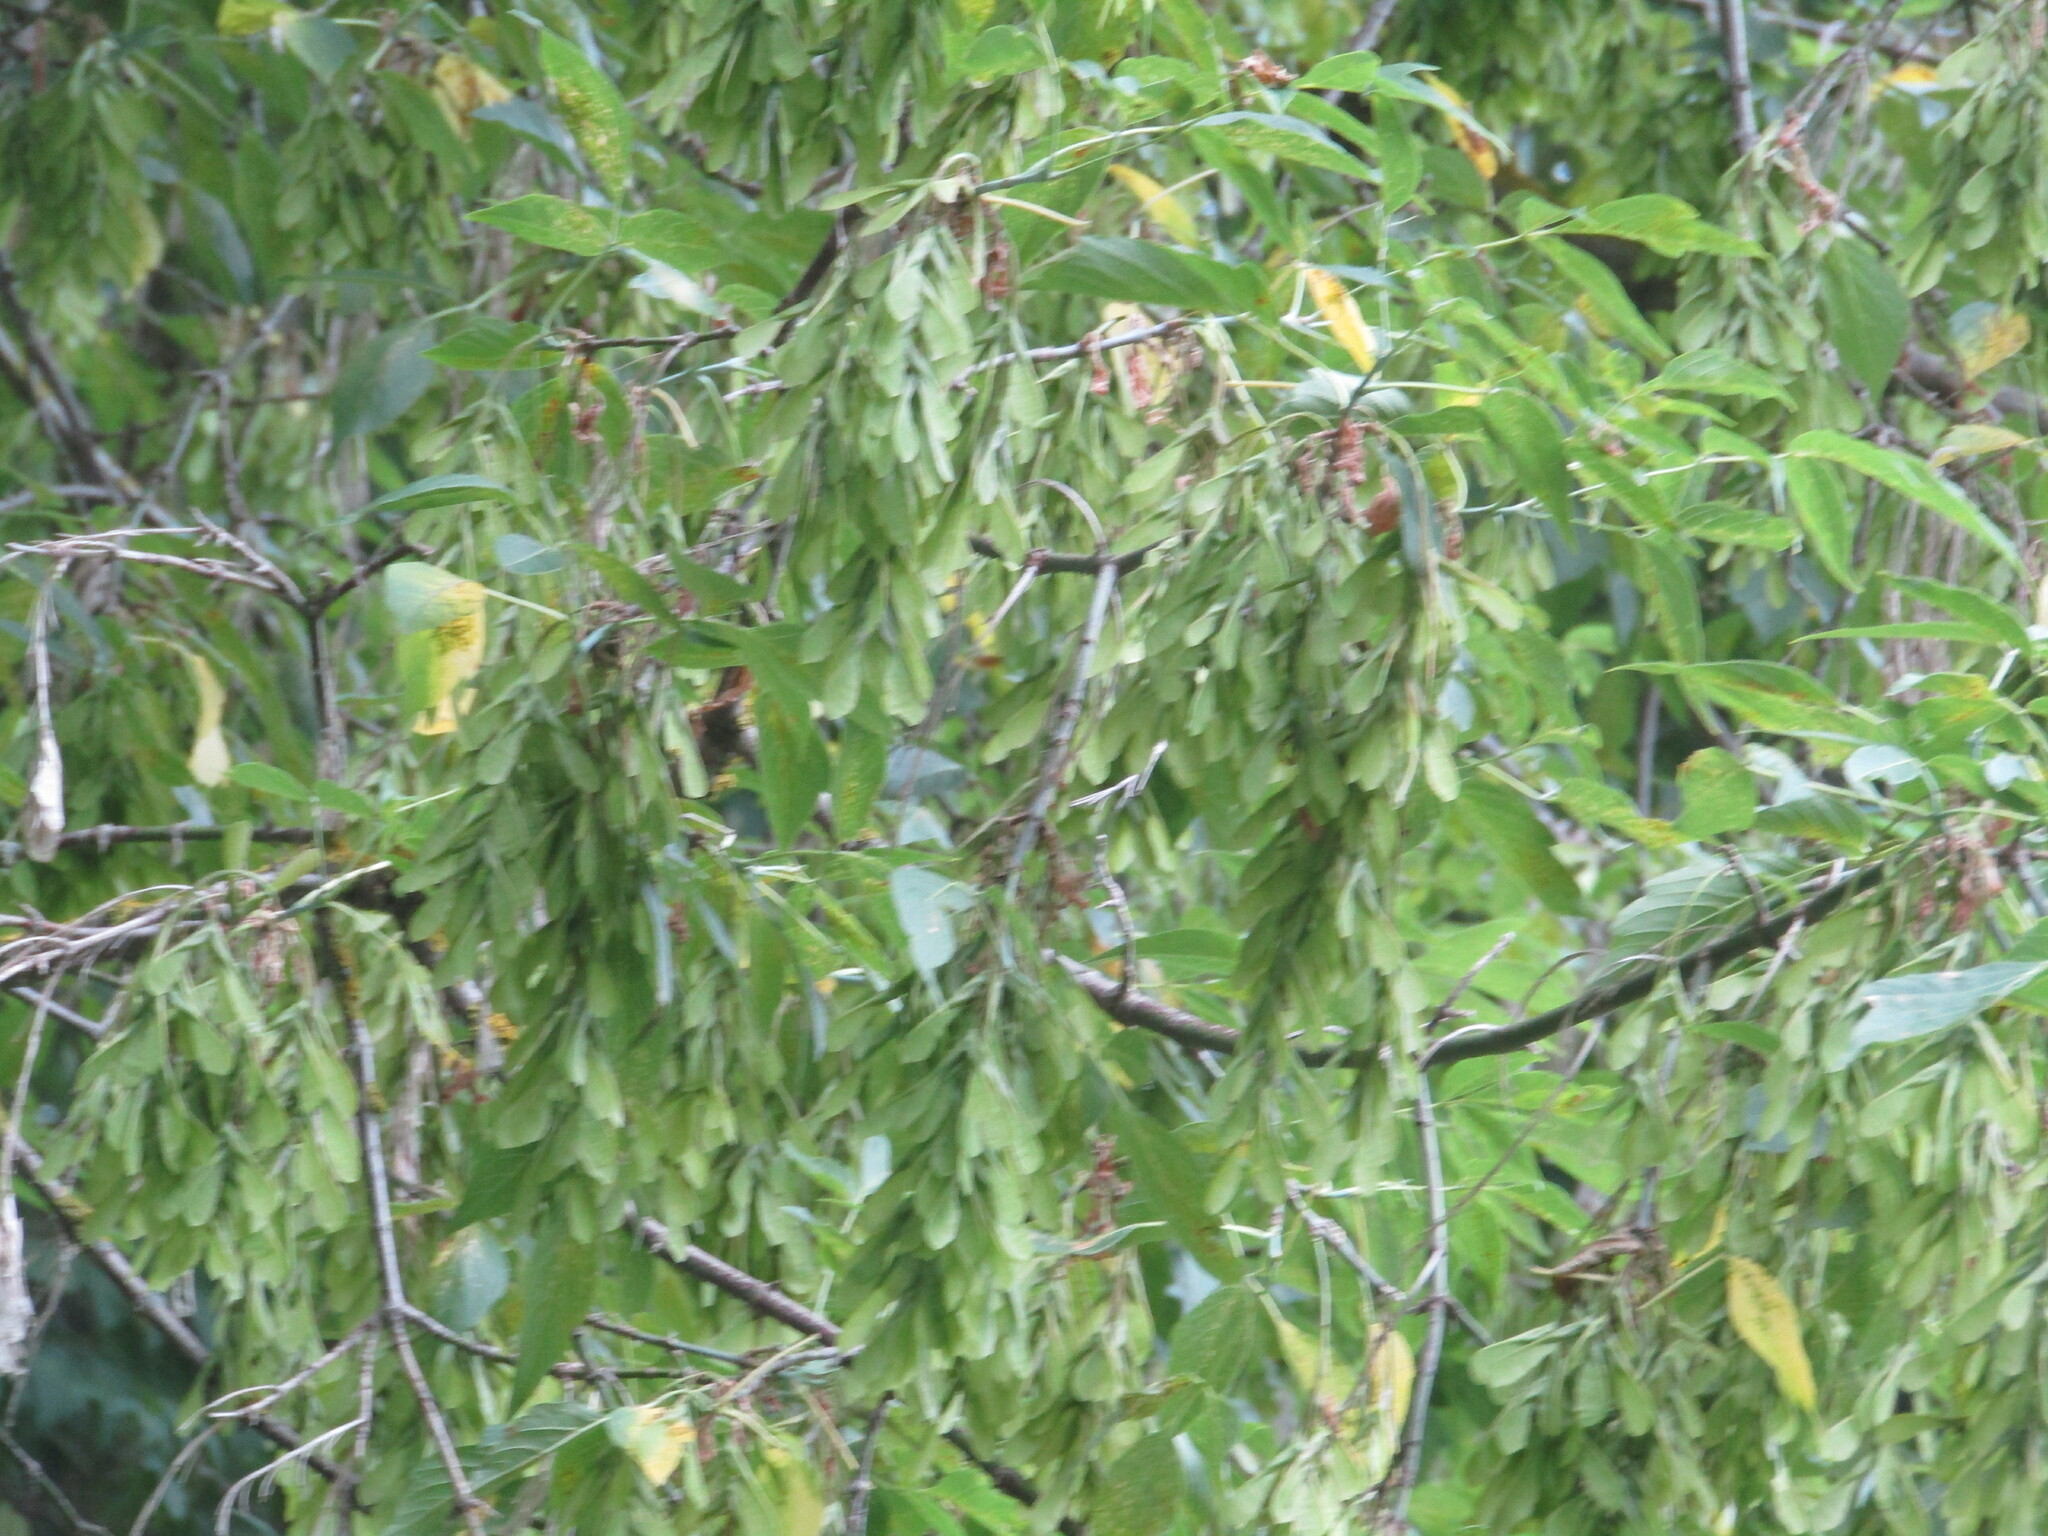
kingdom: Plantae
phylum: Tracheophyta
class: Magnoliopsida
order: Sapindales
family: Sapindaceae
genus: Acer
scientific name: Acer negundo
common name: Ashleaf maple
